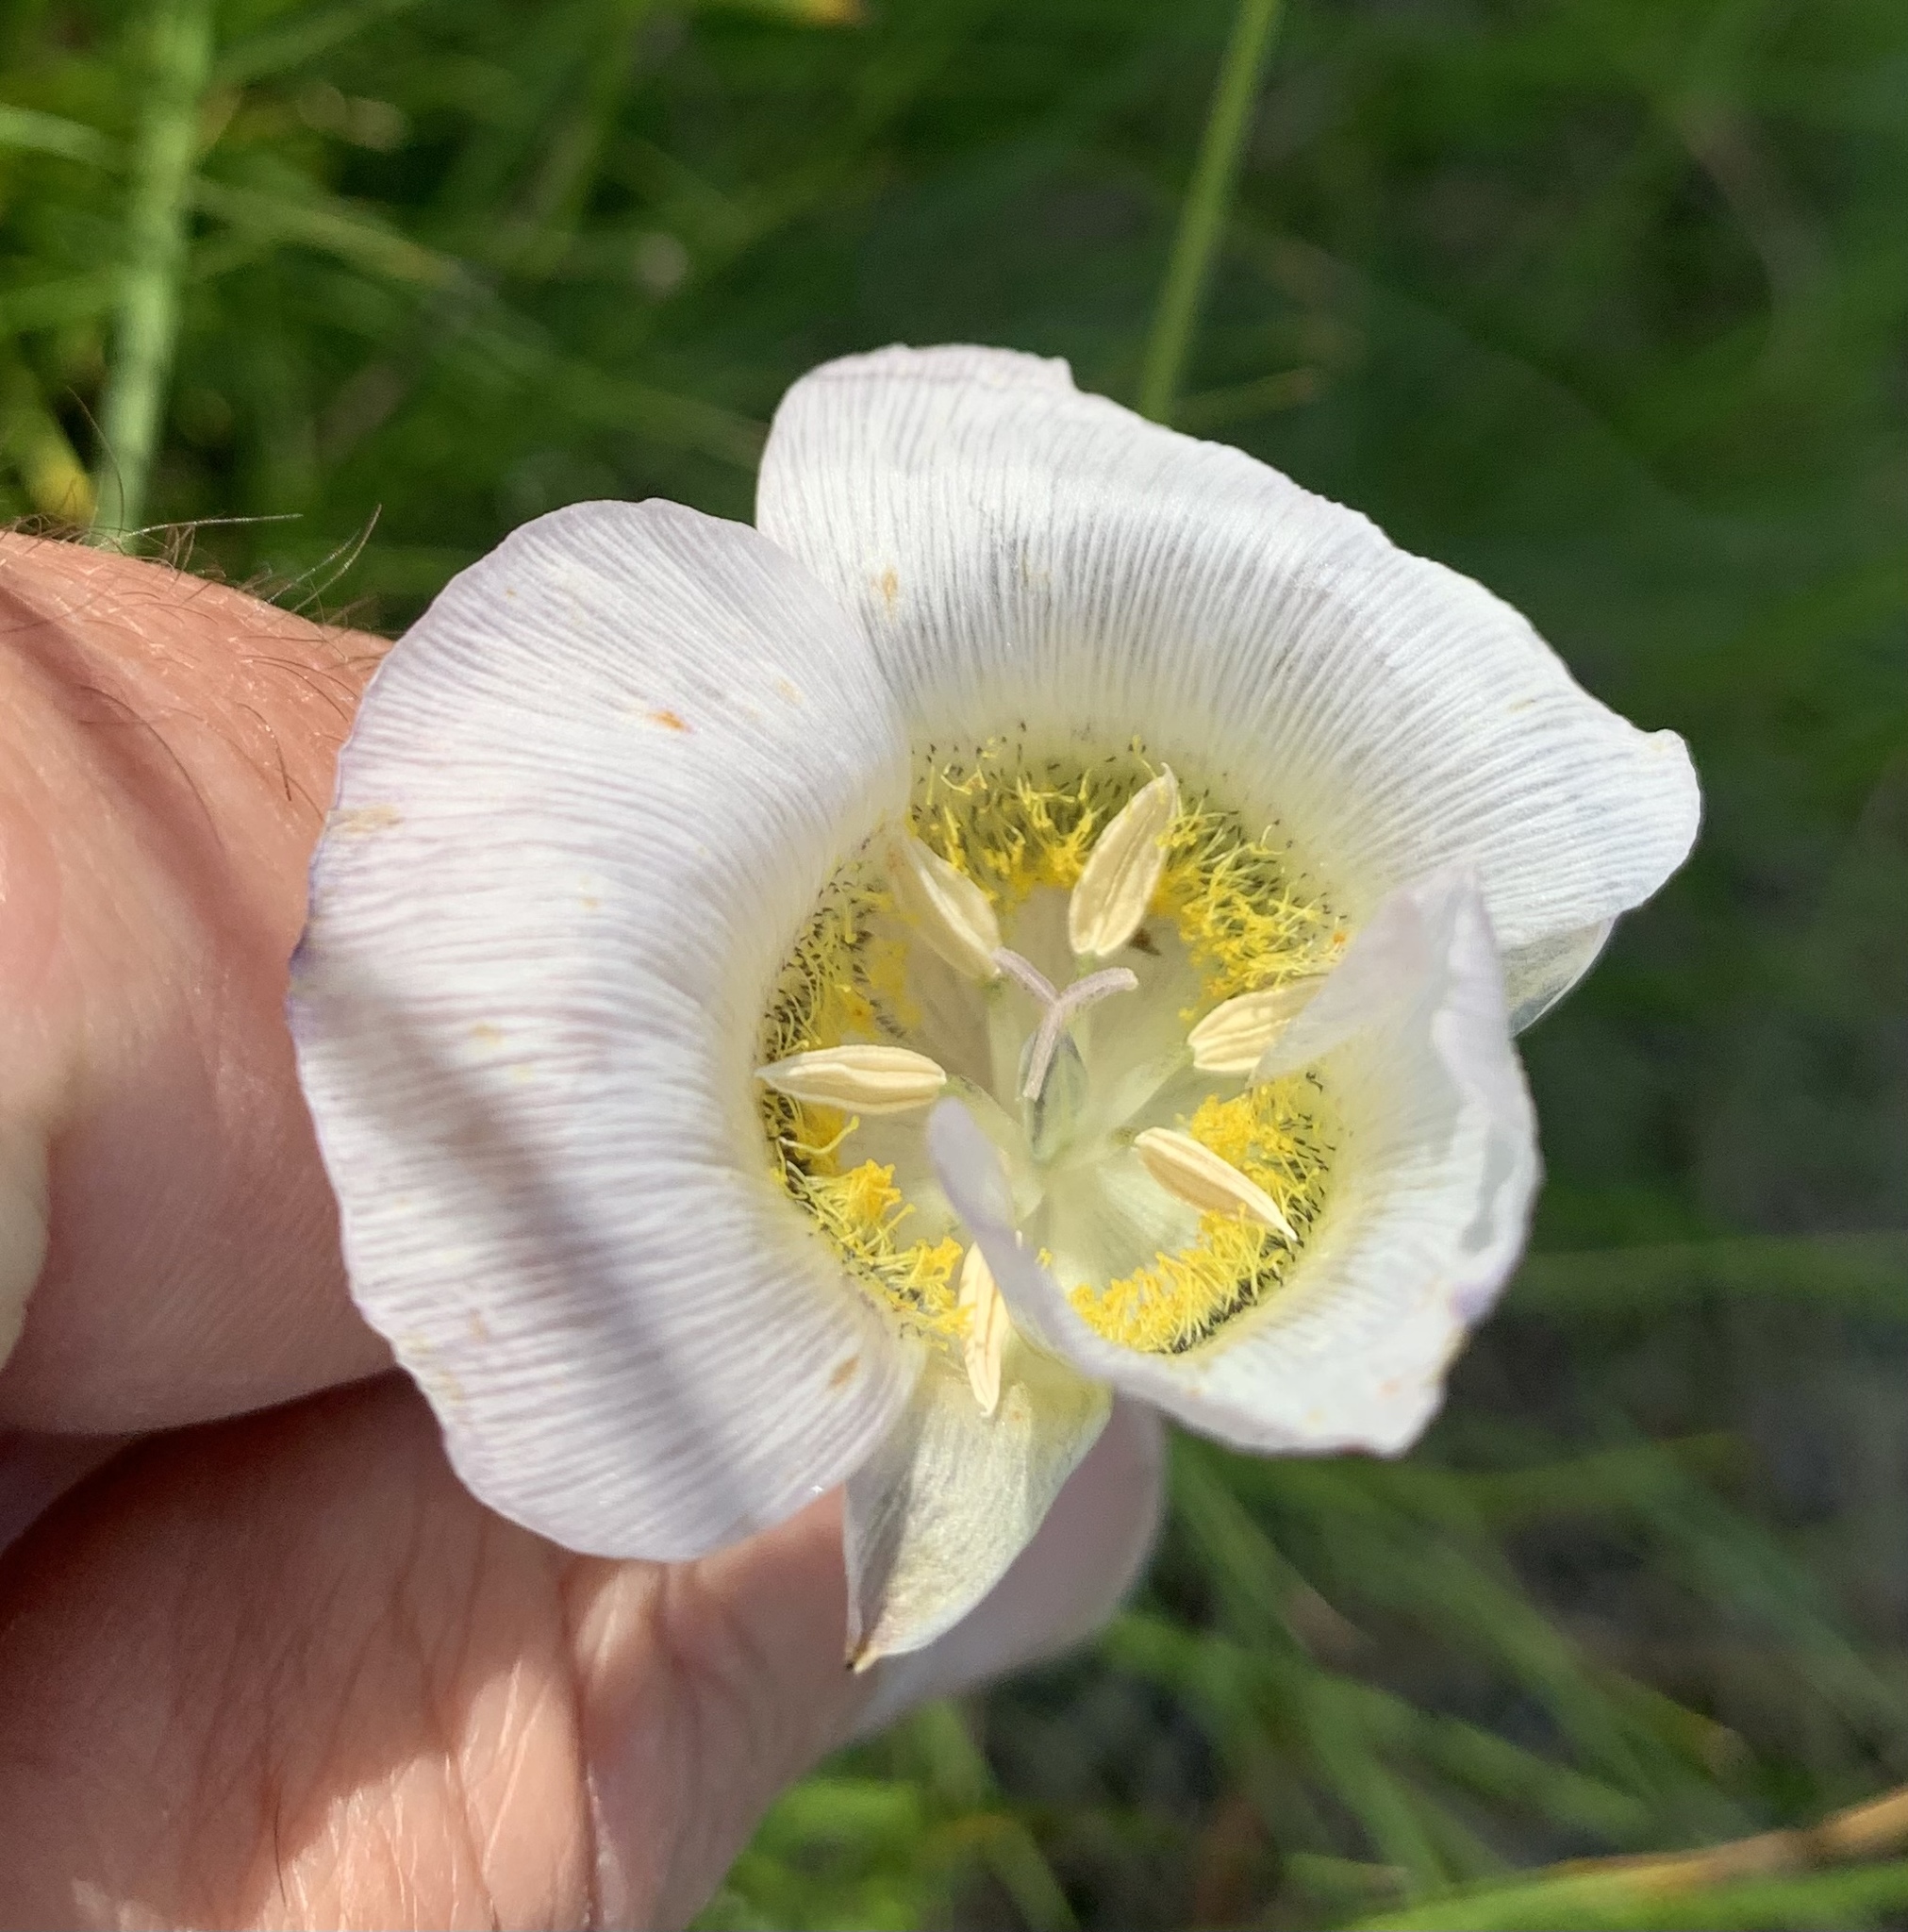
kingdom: Plantae
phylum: Tracheophyta
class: Liliopsida
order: Liliales
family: Liliaceae
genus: Calochortus
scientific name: Calochortus gunnisonii
